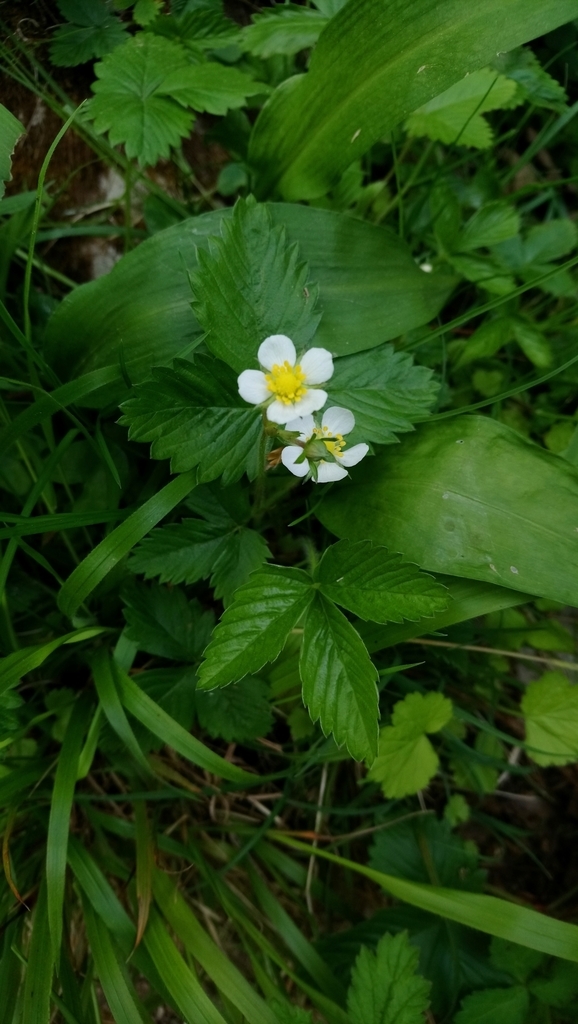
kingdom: Plantae
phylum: Tracheophyta
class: Magnoliopsida
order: Rosales
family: Rosaceae
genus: Fragaria
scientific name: Fragaria vesca
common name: Wild strawberry
